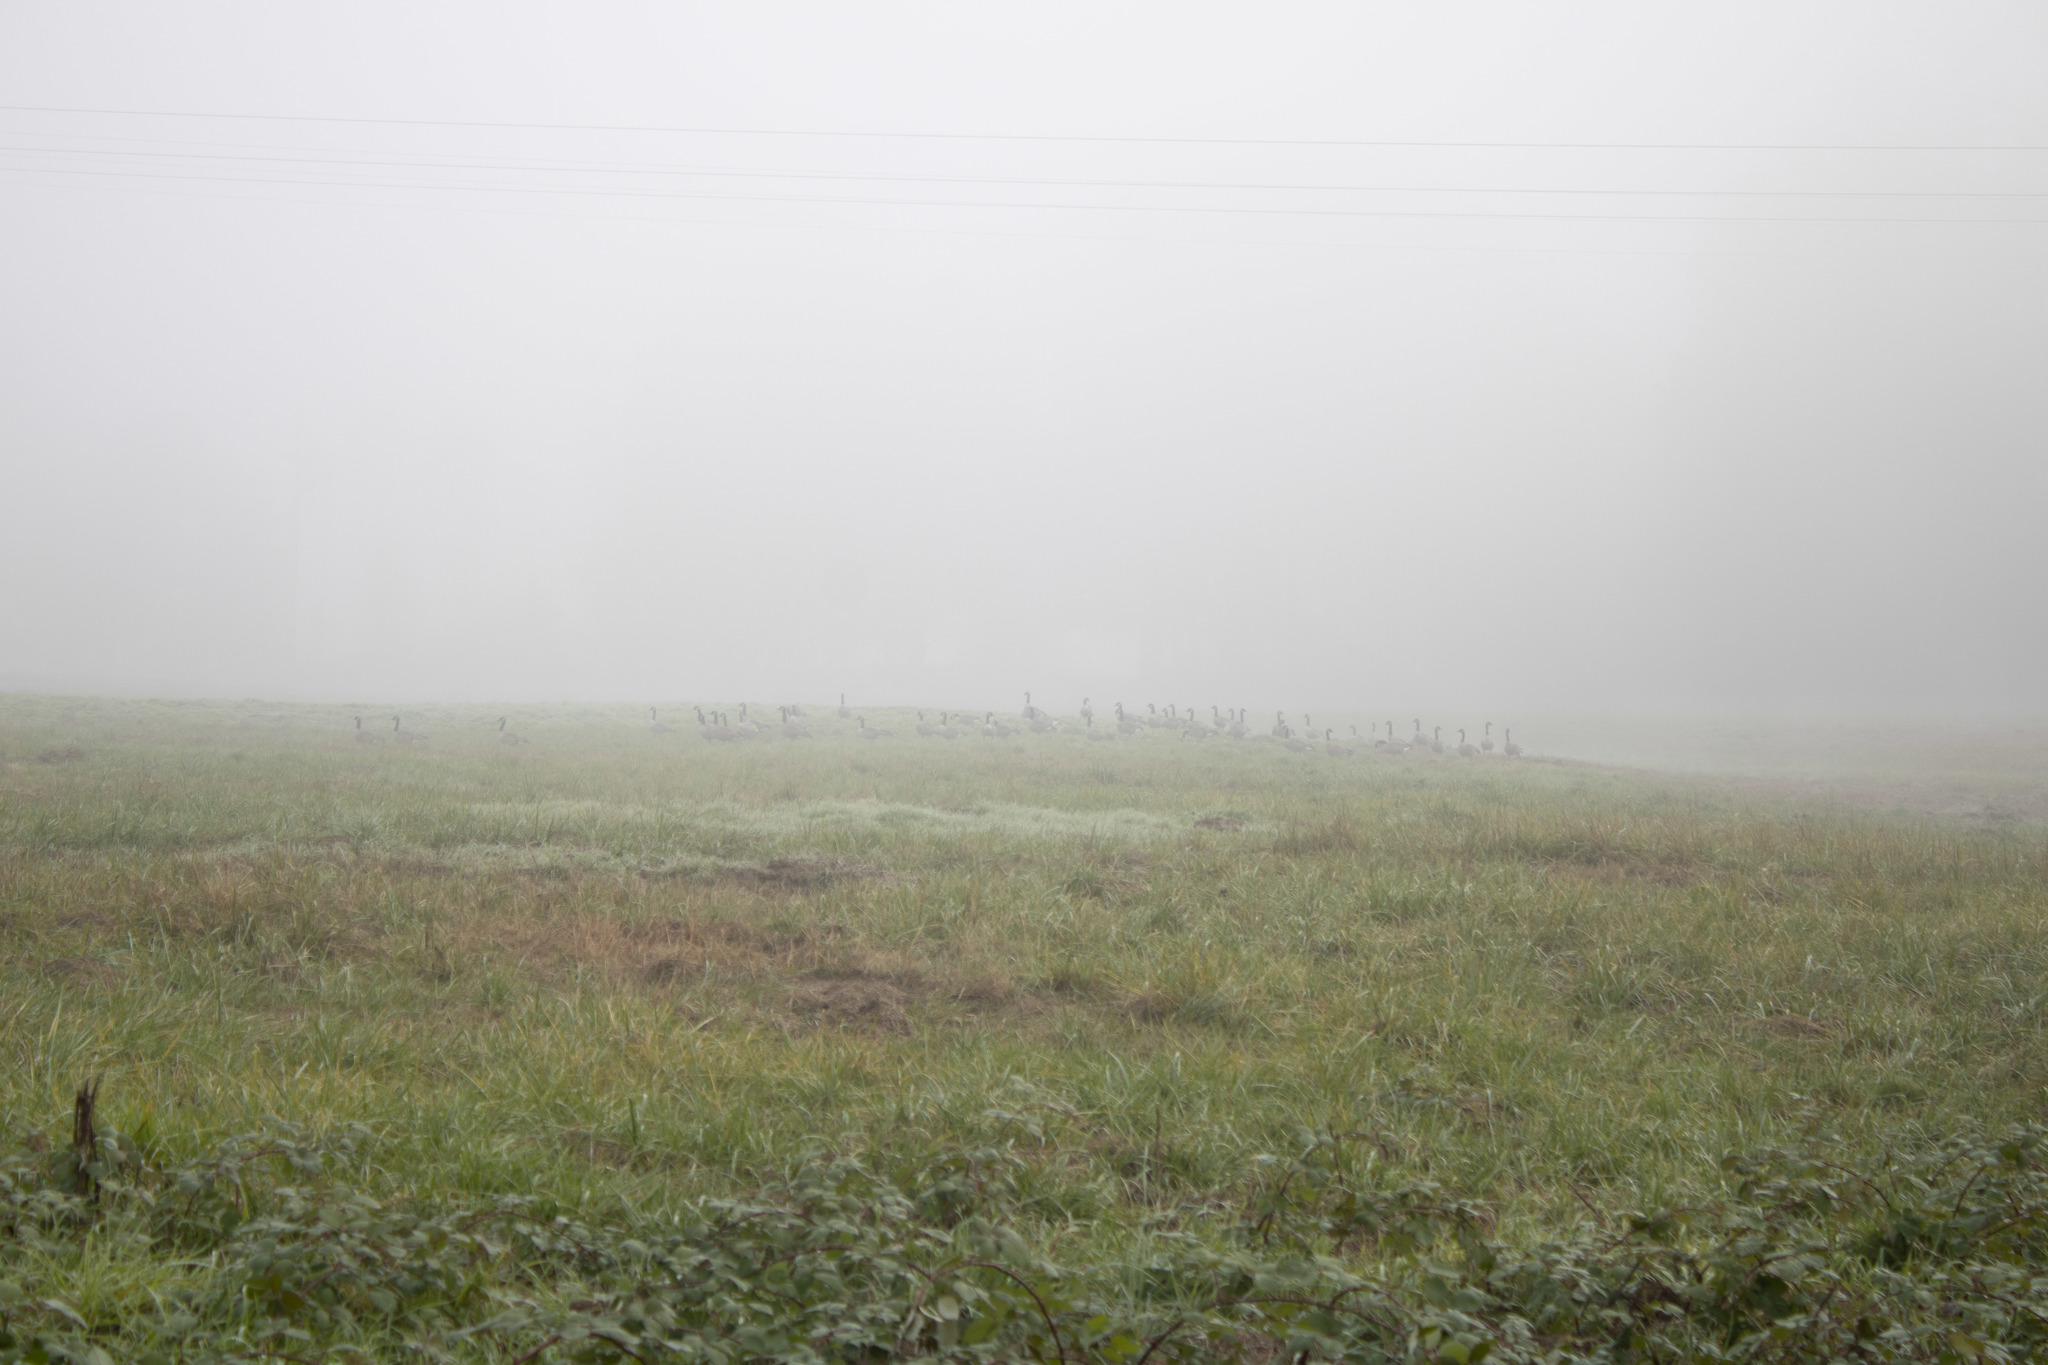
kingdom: Animalia
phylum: Chordata
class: Aves
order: Anseriformes
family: Anatidae
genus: Branta
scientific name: Branta canadensis
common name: Canada goose
